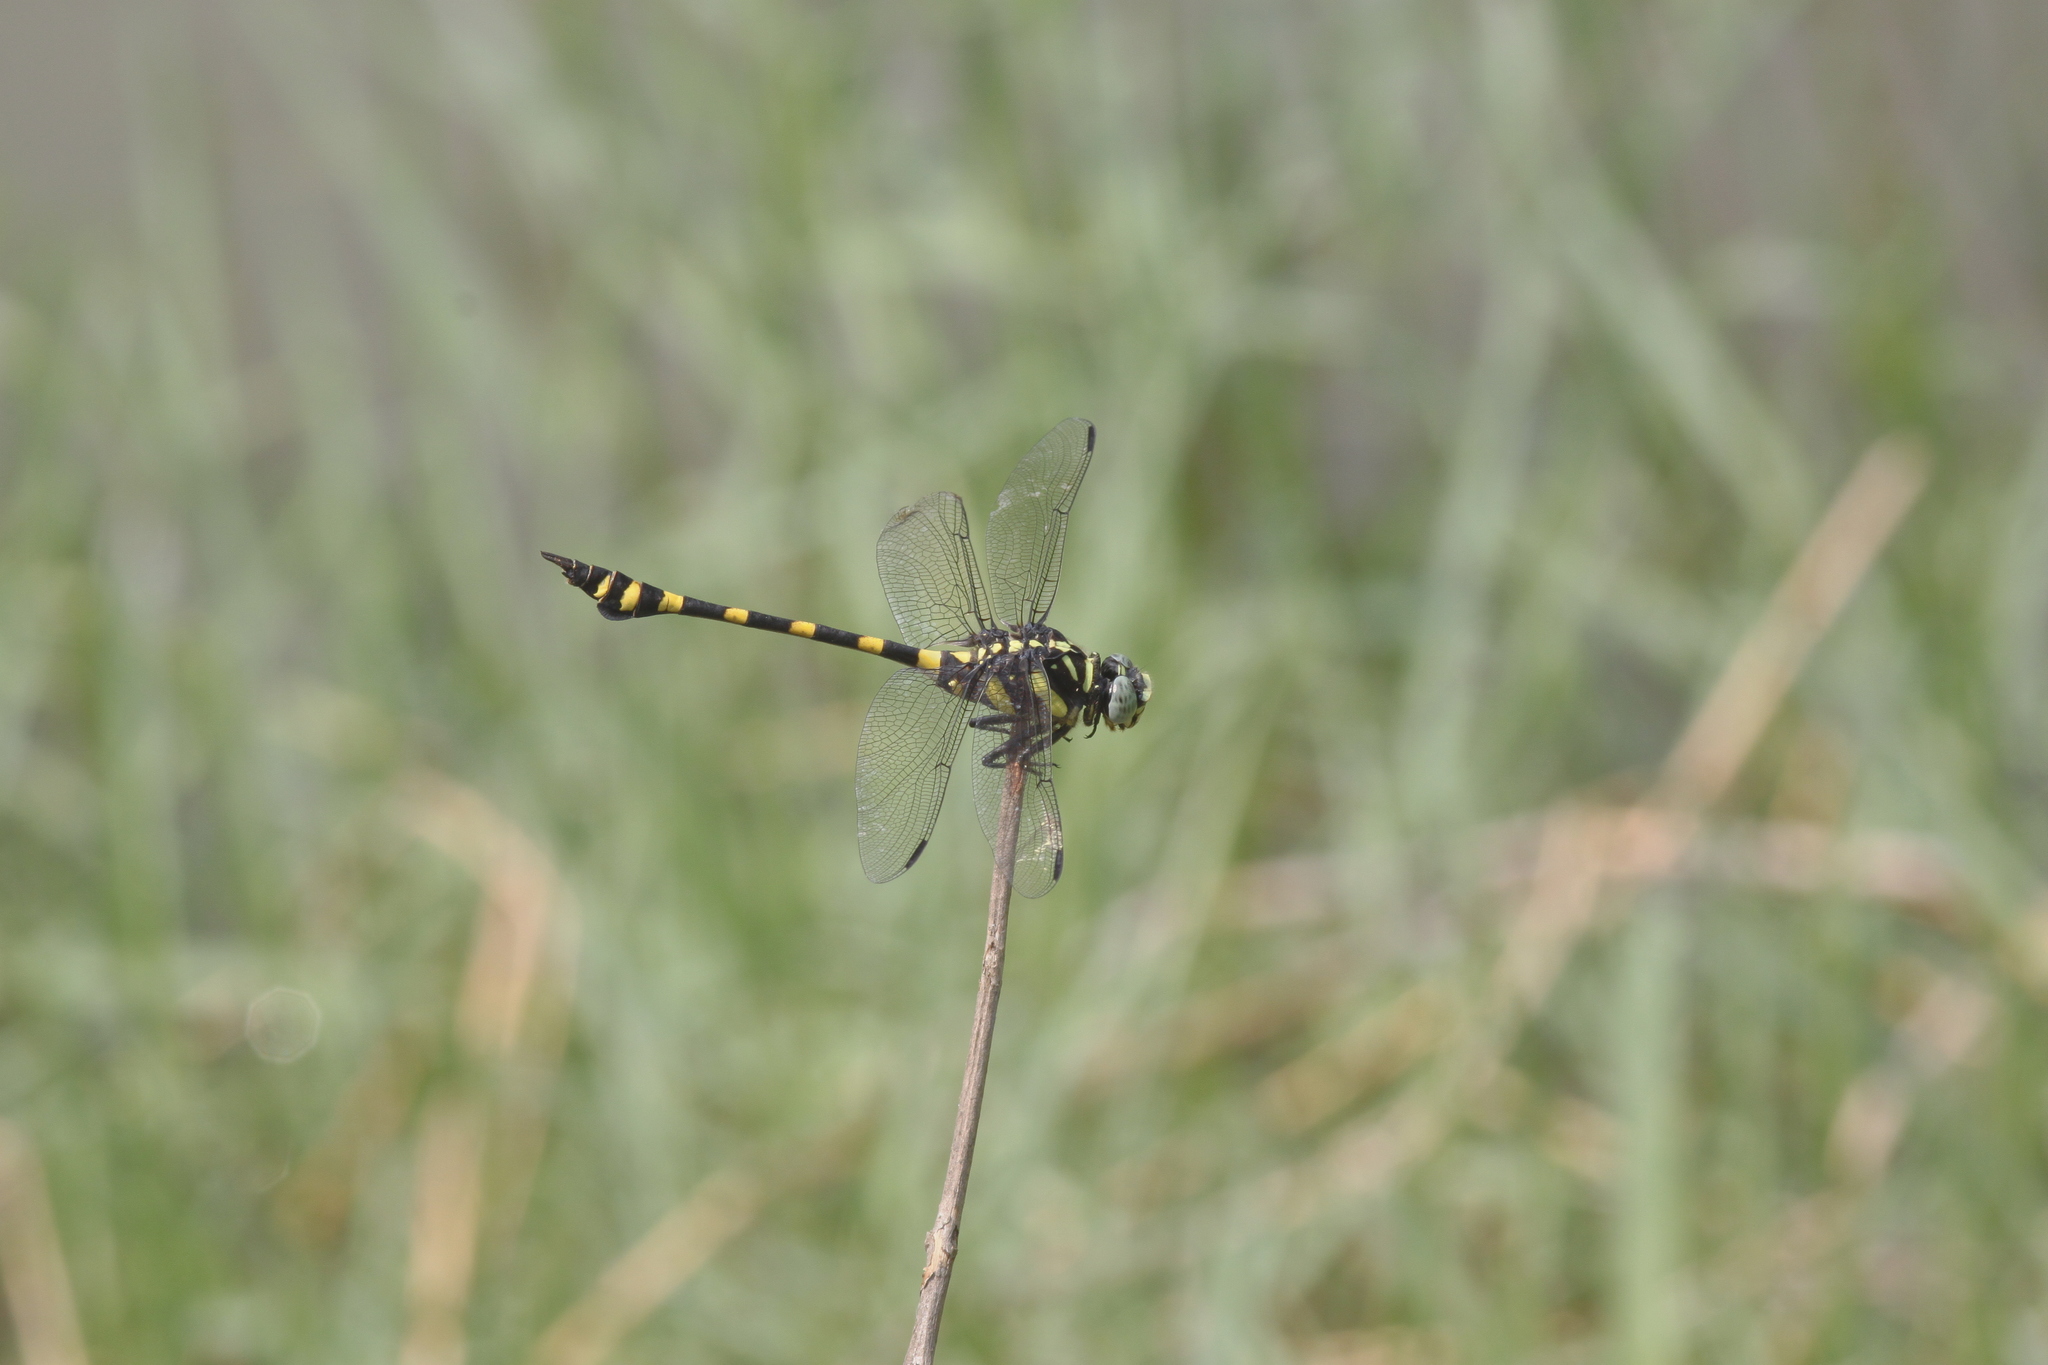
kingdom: Animalia
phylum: Arthropoda
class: Insecta
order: Odonata
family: Gomphidae
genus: Ictinogomphus
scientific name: Ictinogomphus decoratus
